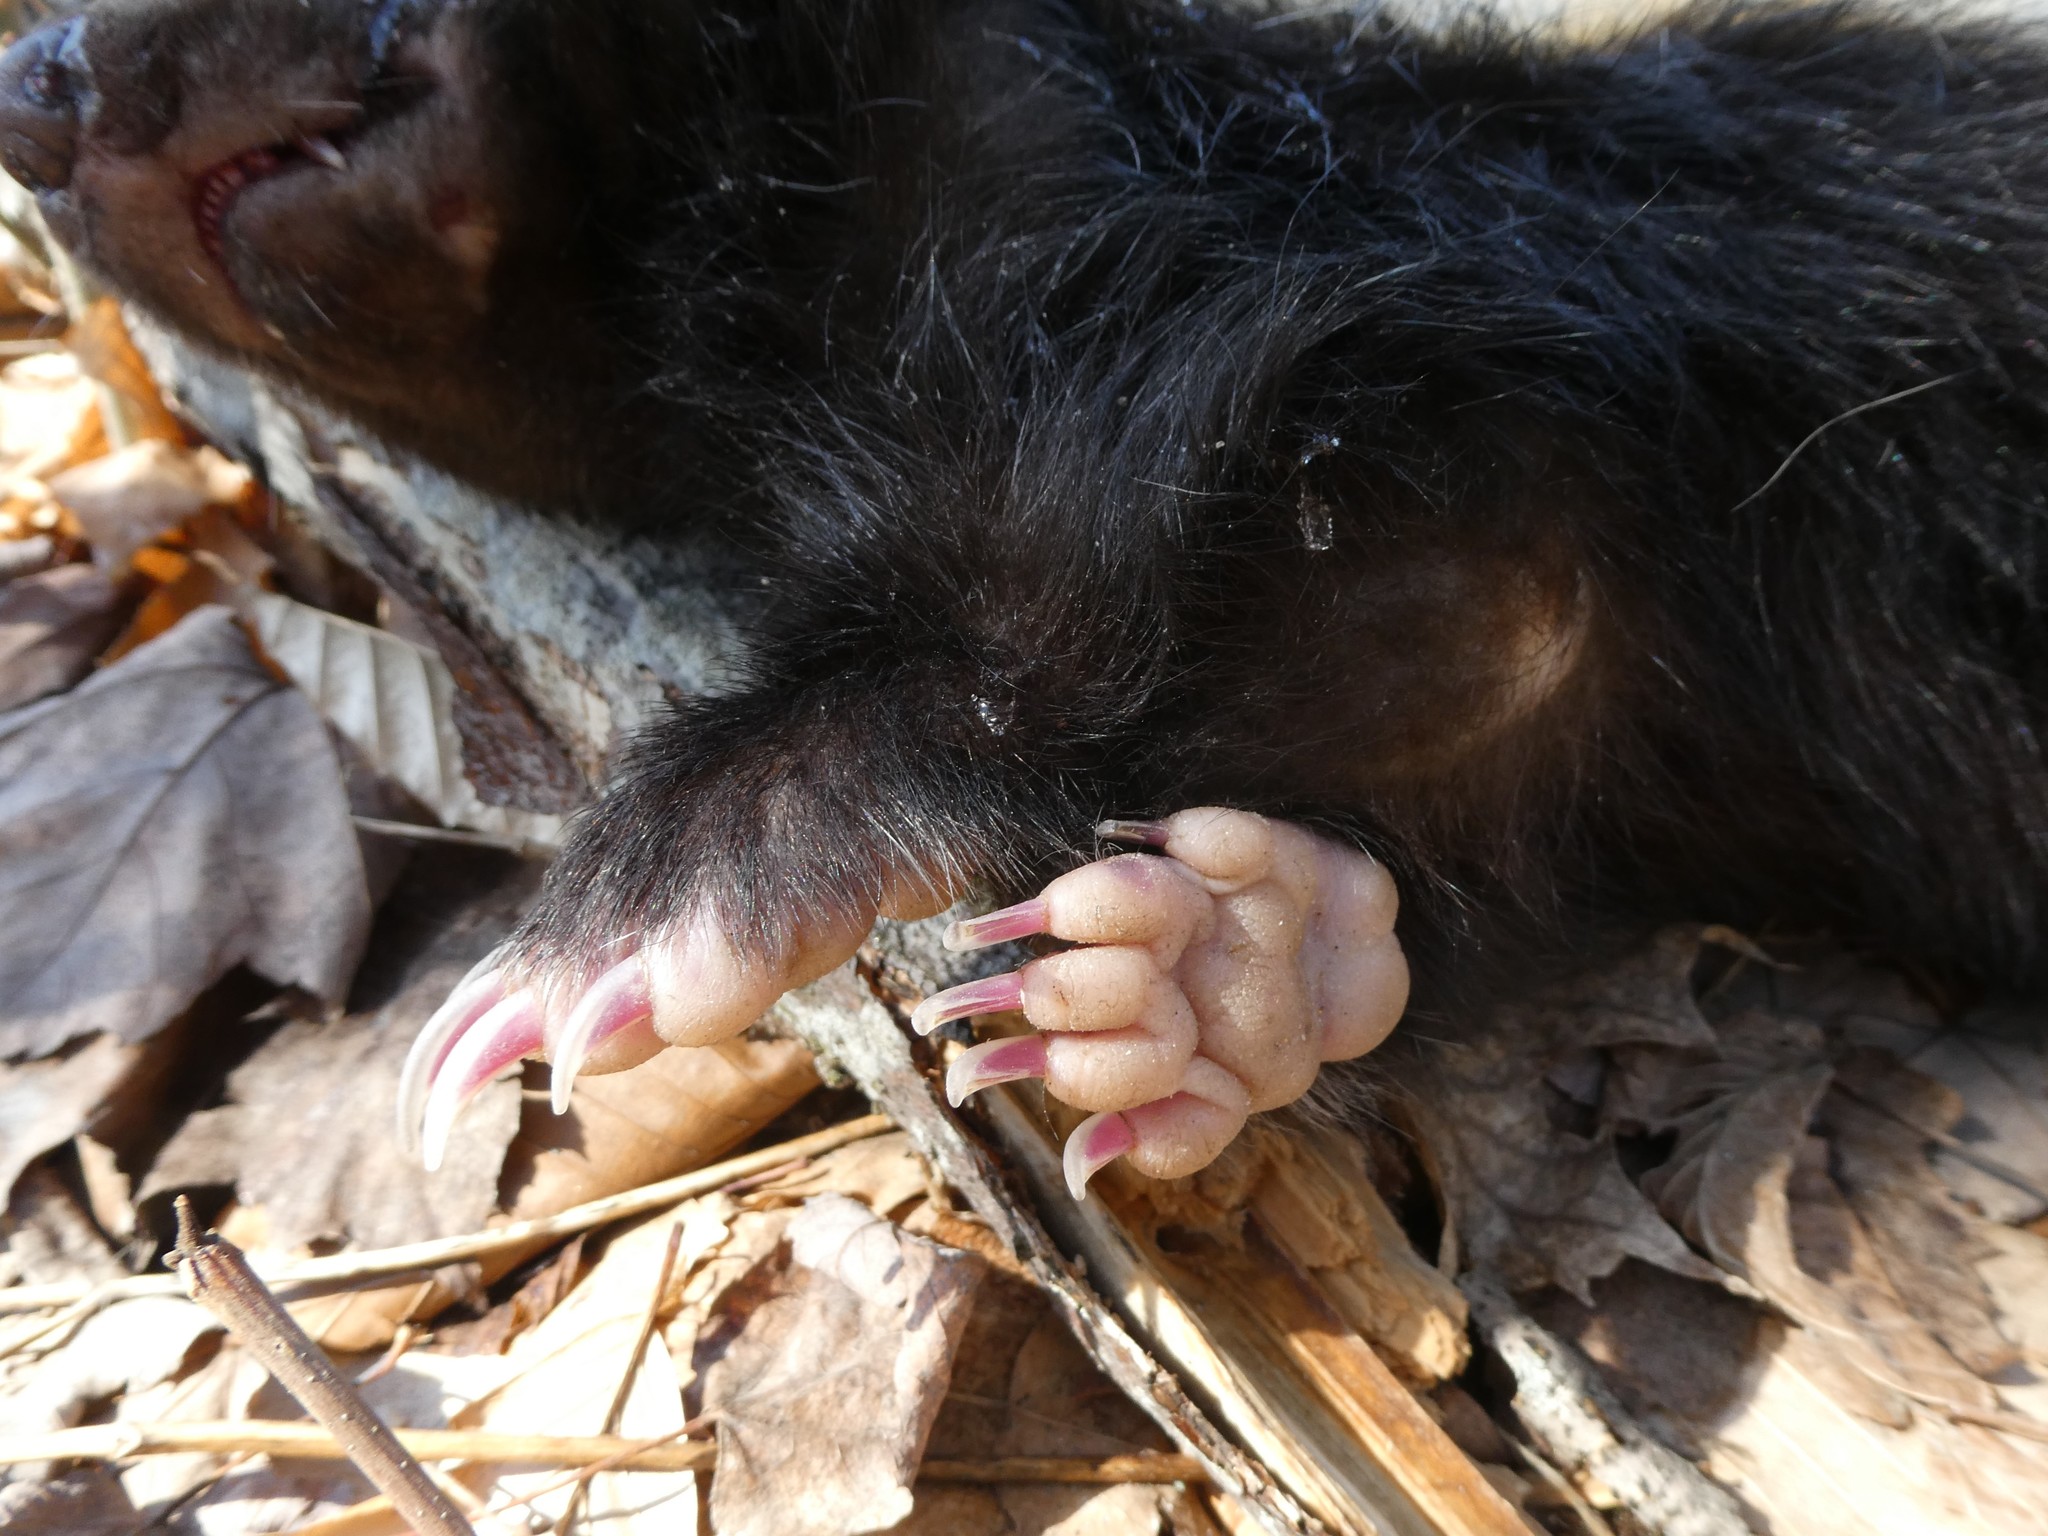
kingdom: Animalia
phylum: Chordata
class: Mammalia
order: Carnivora
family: Mephitidae
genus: Mephitis
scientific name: Mephitis mephitis
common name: Striped skunk
